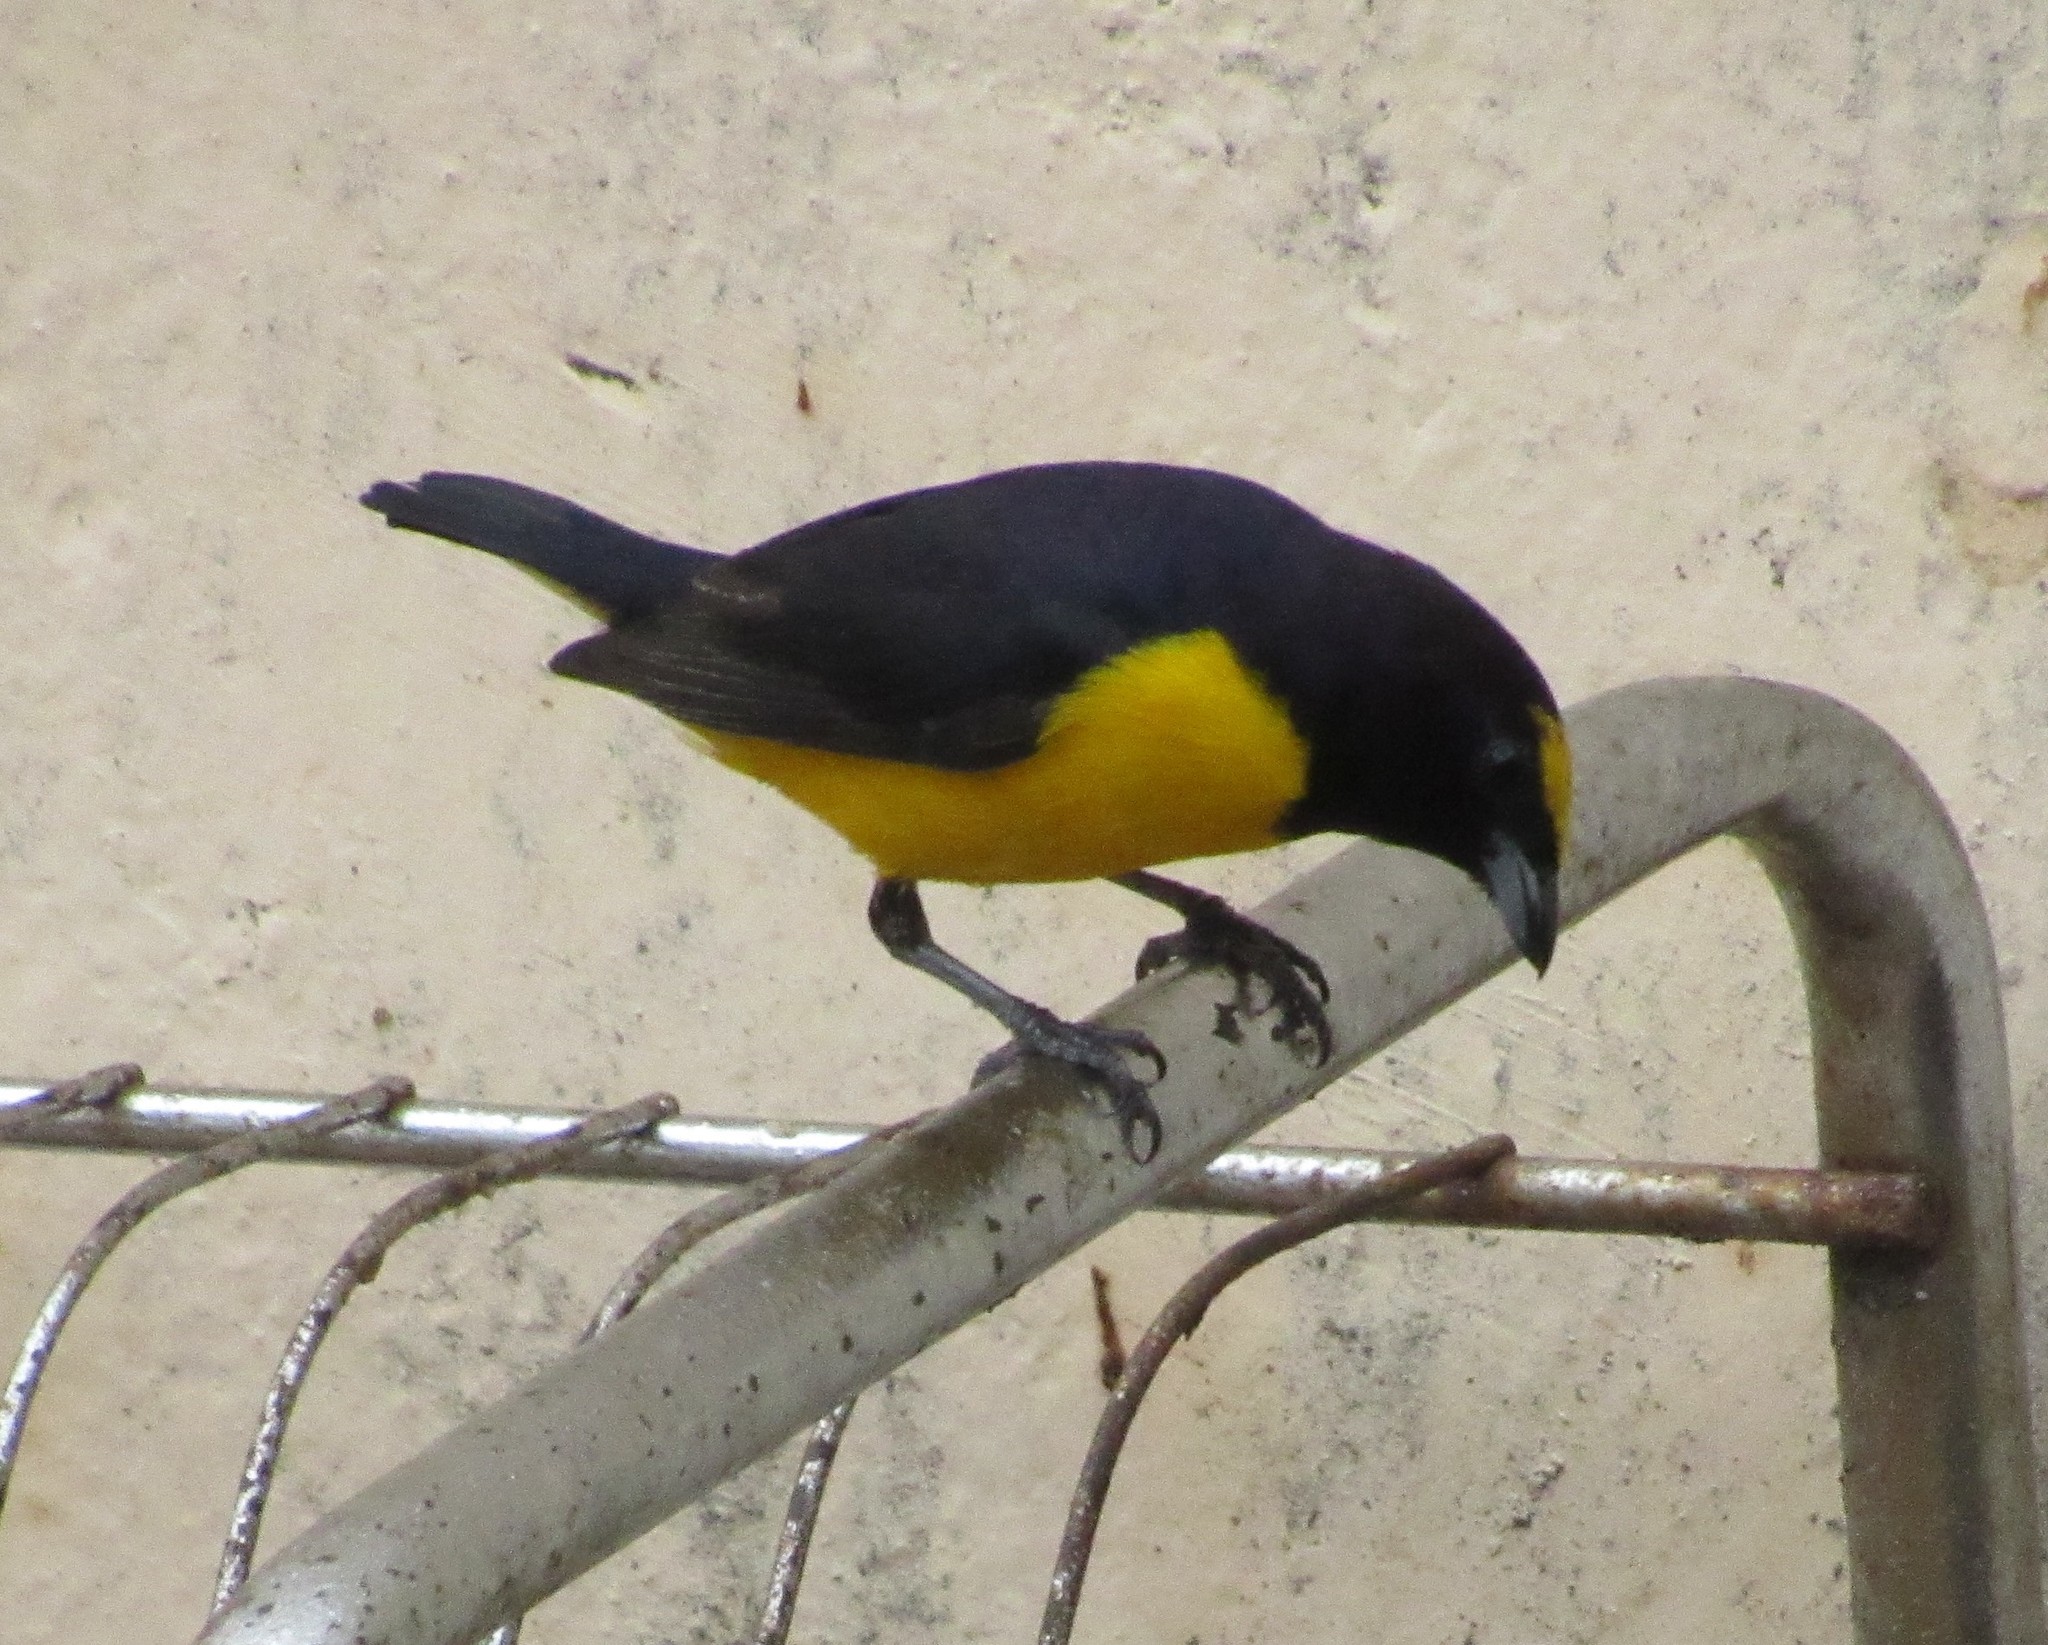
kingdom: Animalia
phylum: Chordata
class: Aves
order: Passeriformes
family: Fringillidae
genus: Euphonia
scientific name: Euphonia chlorotica
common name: Purple-throated euphonia
